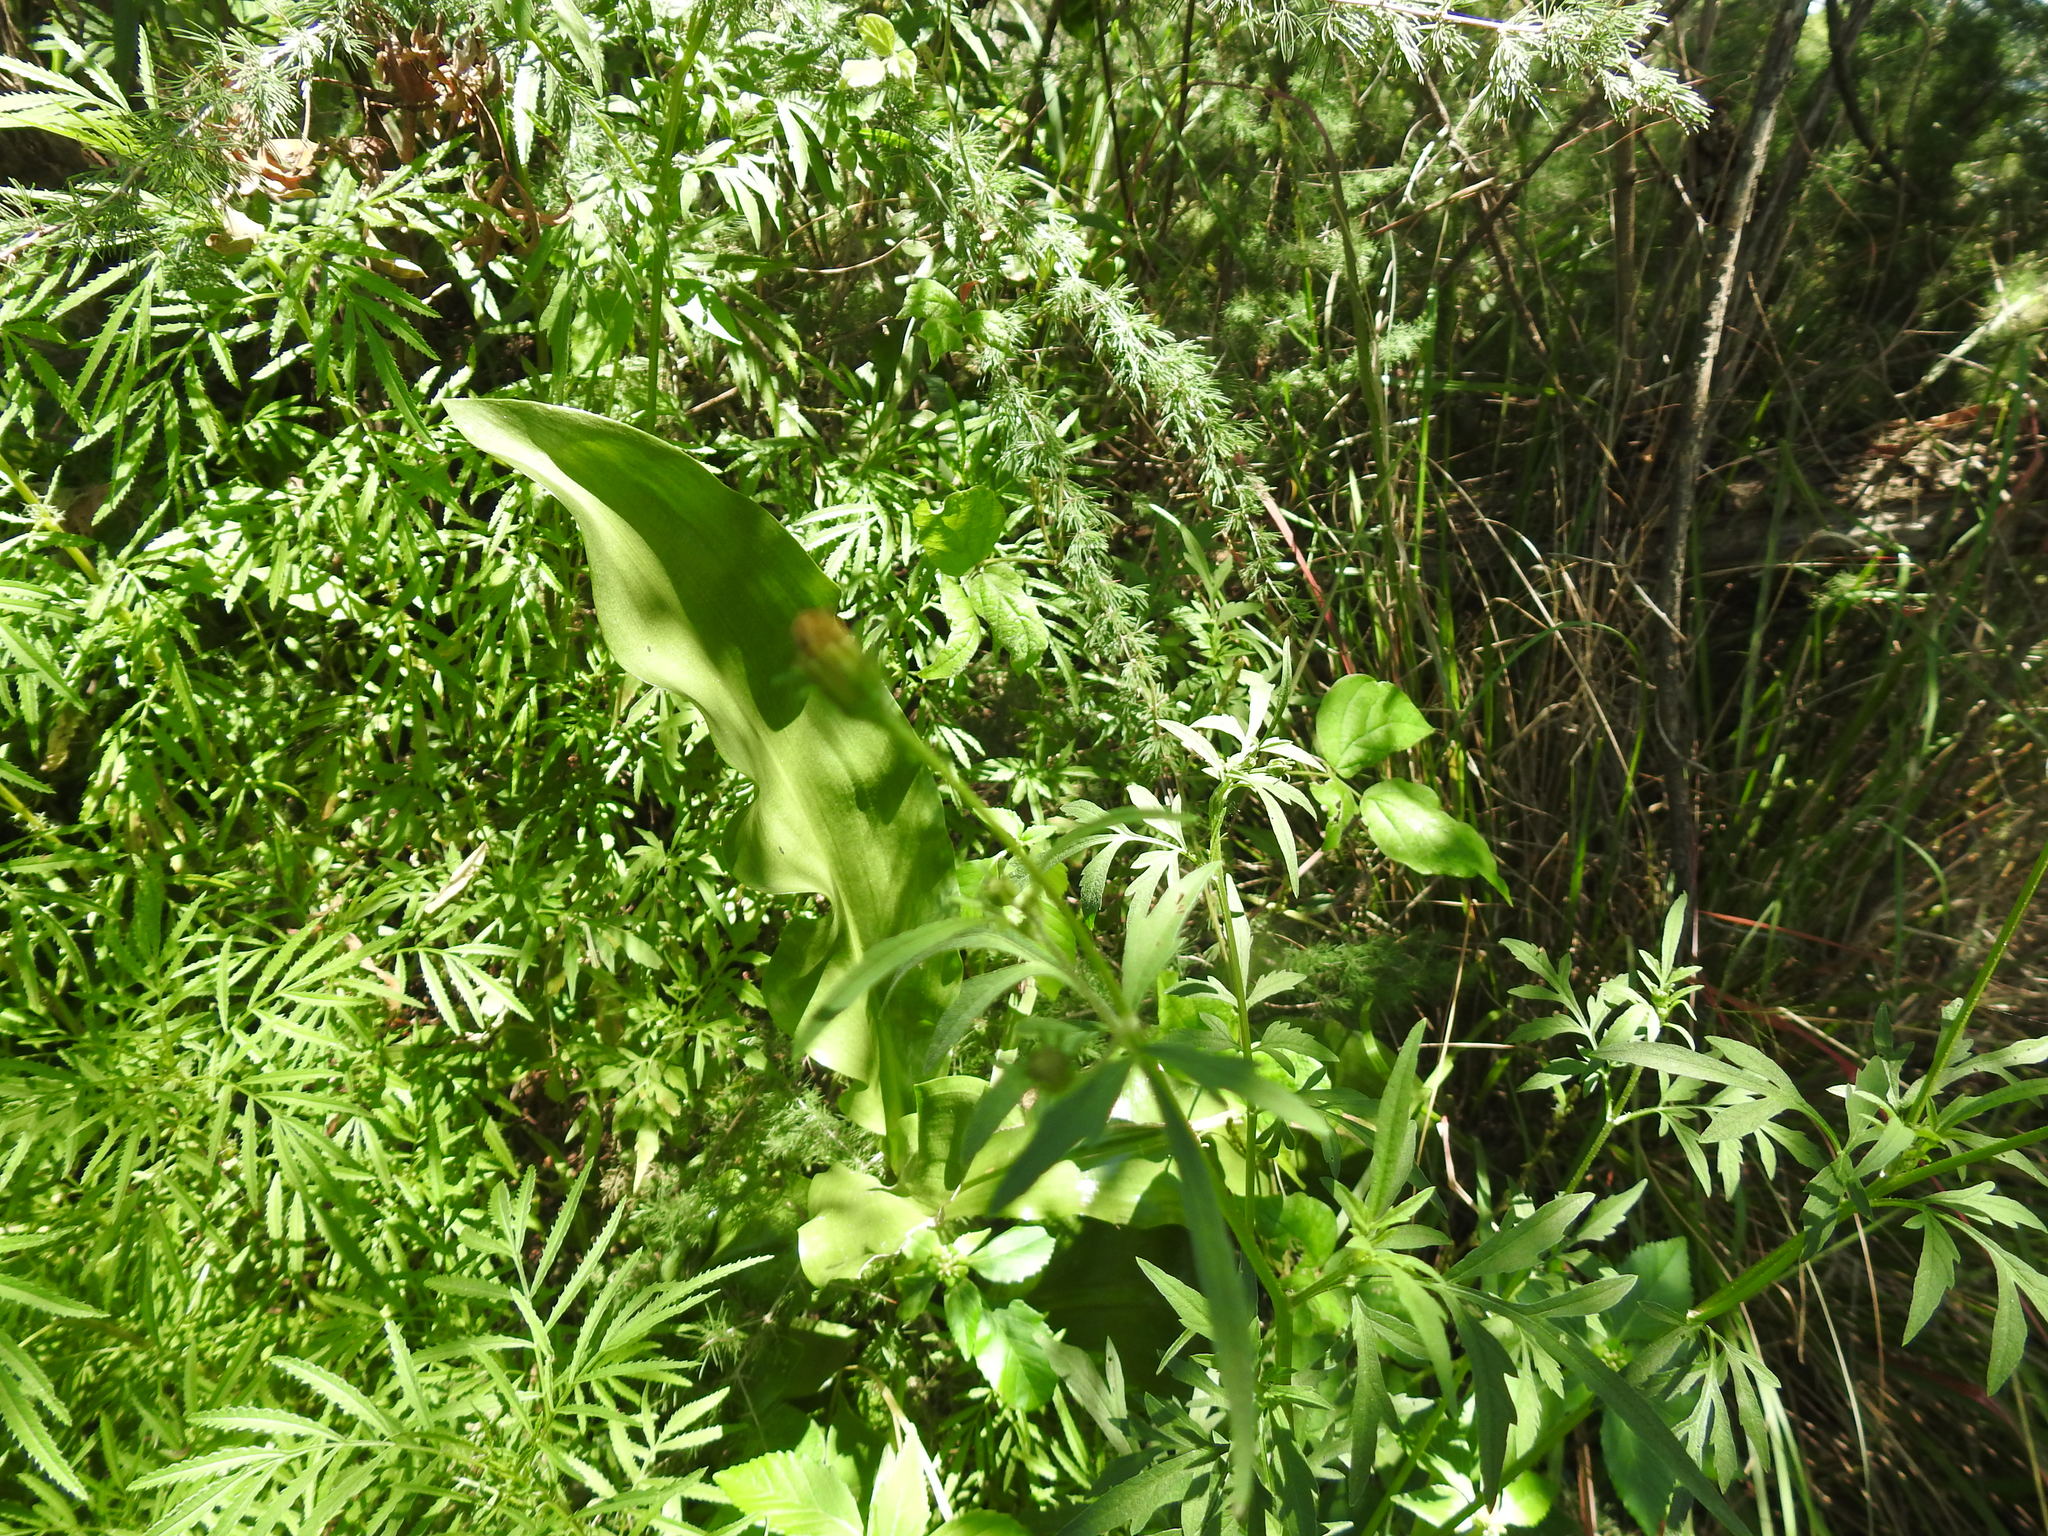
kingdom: Plantae
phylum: Tracheophyta
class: Liliopsida
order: Asparagales
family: Amaryllidaceae
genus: Scadoxus
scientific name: Scadoxus puniceus
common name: Royal-paintbrush
